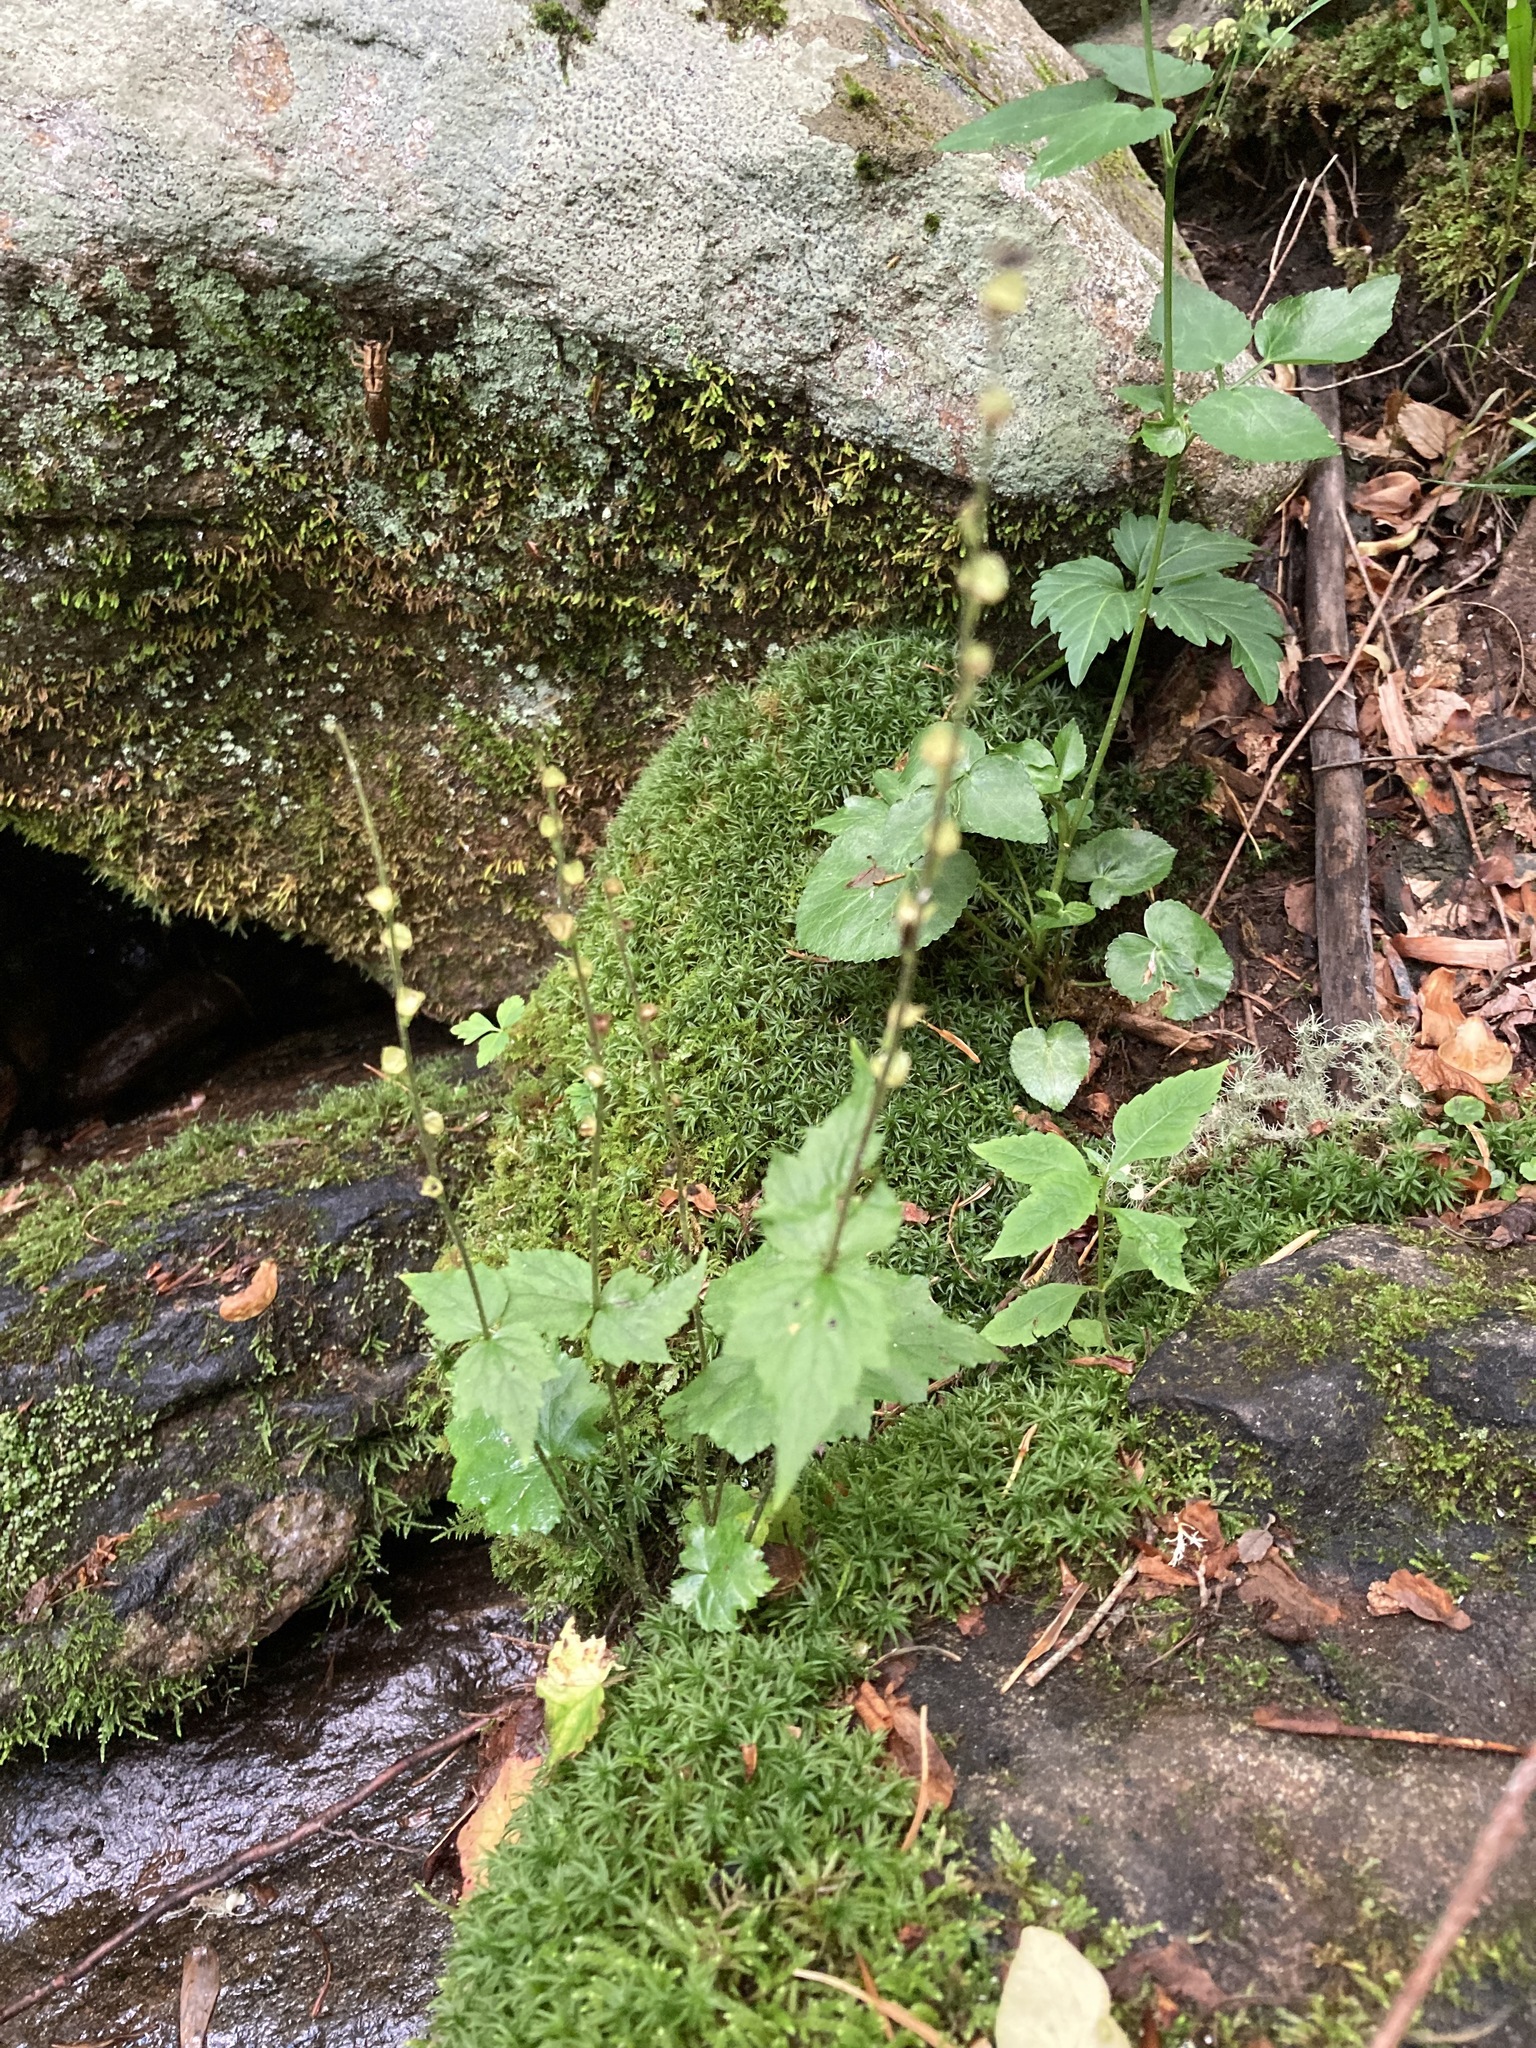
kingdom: Plantae
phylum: Tracheophyta
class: Magnoliopsida
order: Saxifragales
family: Saxifragaceae
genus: Mitella
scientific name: Mitella diphylla
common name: Coolwort
